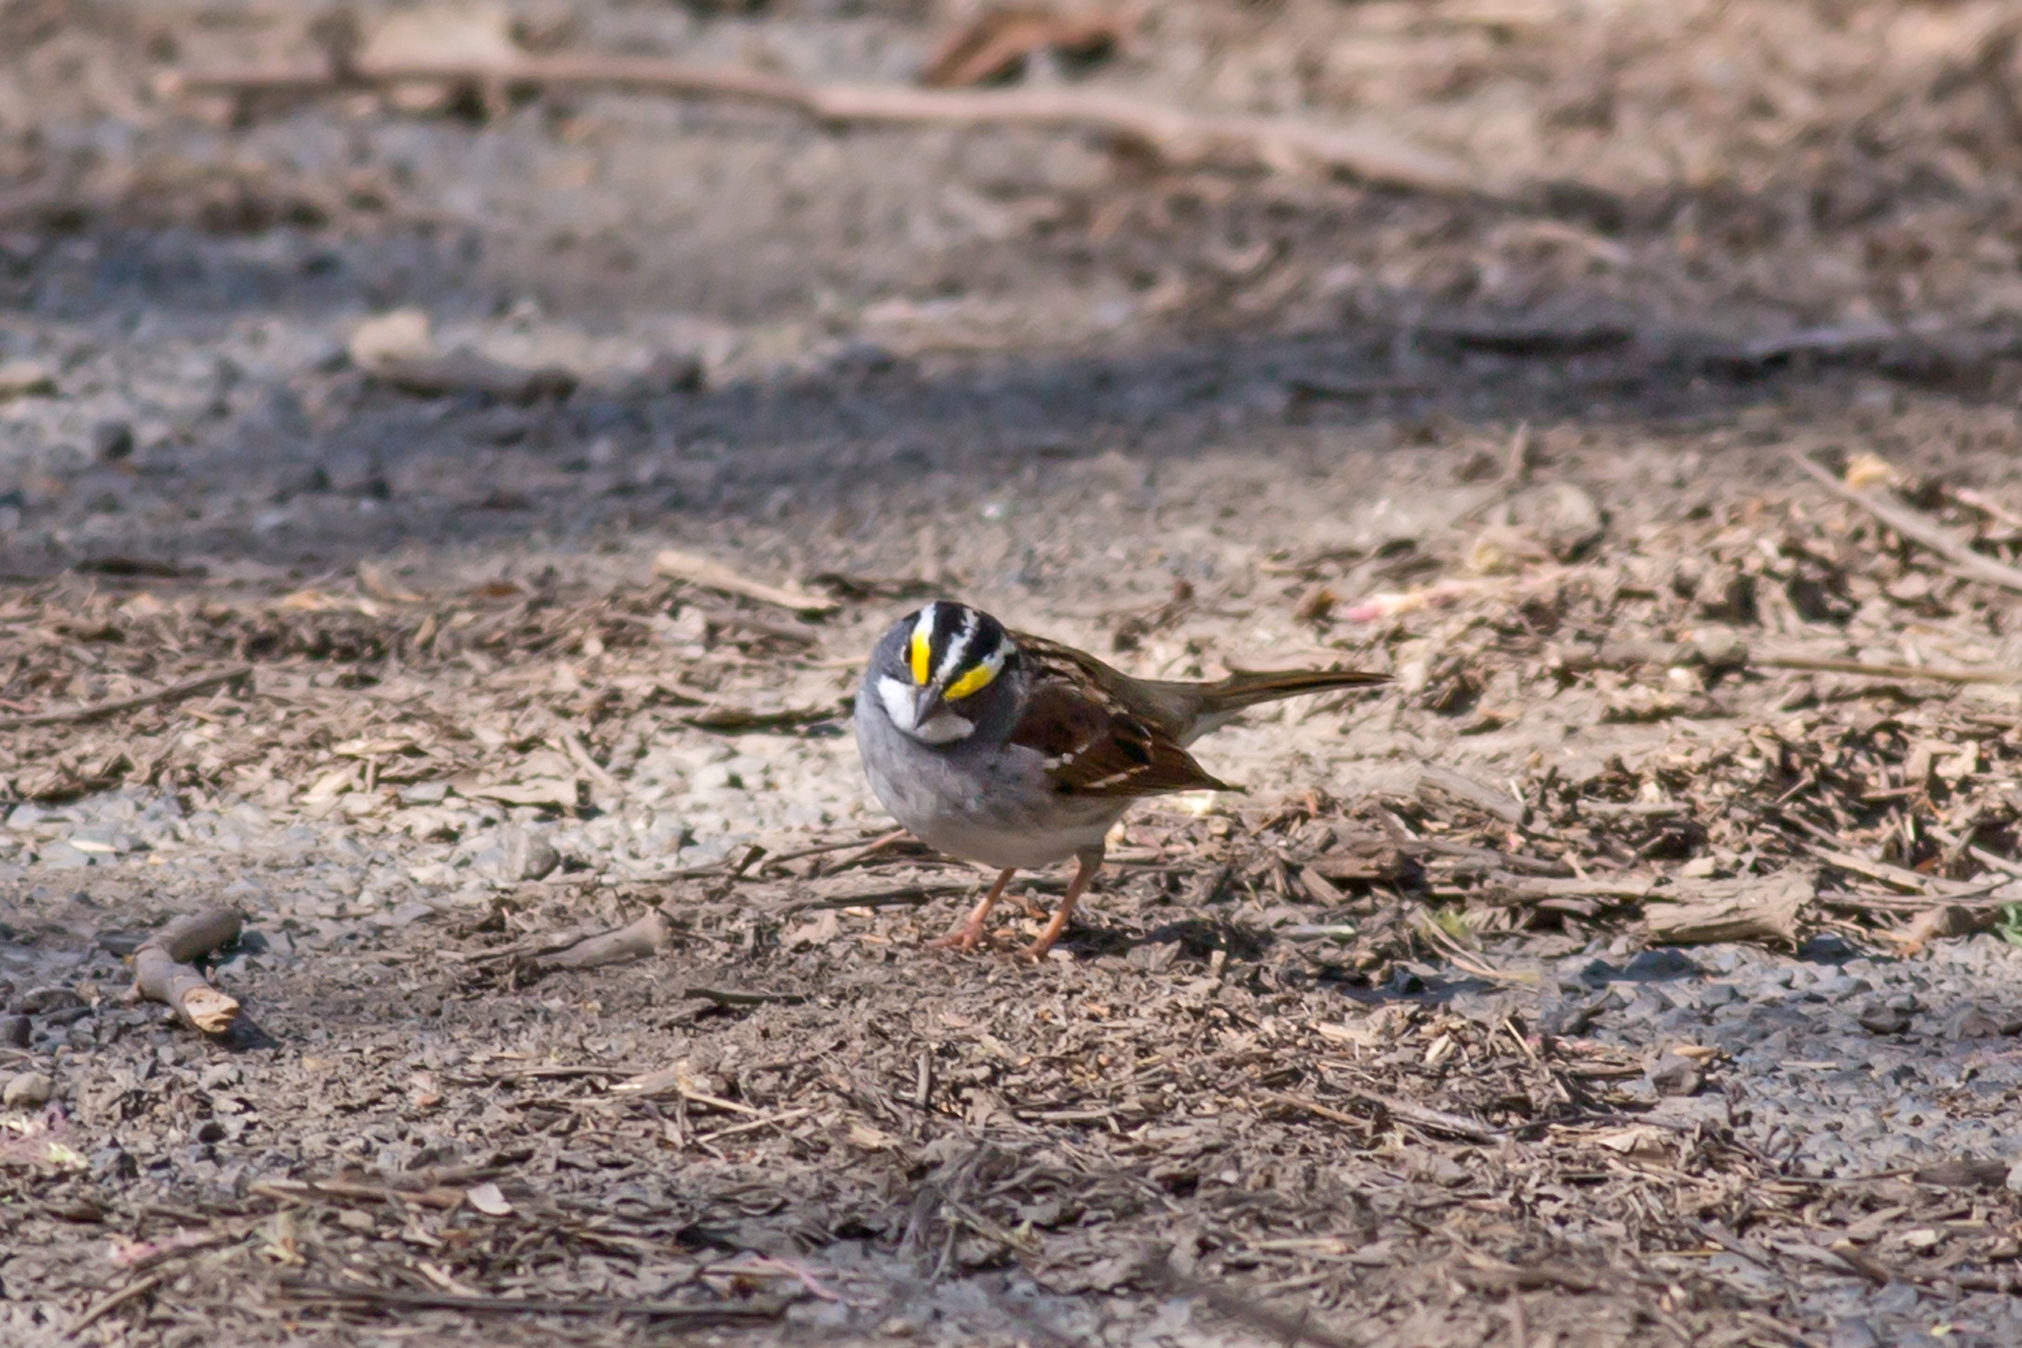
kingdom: Animalia
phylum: Chordata
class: Aves
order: Passeriformes
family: Passerellidae
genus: Zonotrichia
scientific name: Zonotrichia albicollis
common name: White-throated sparrow
